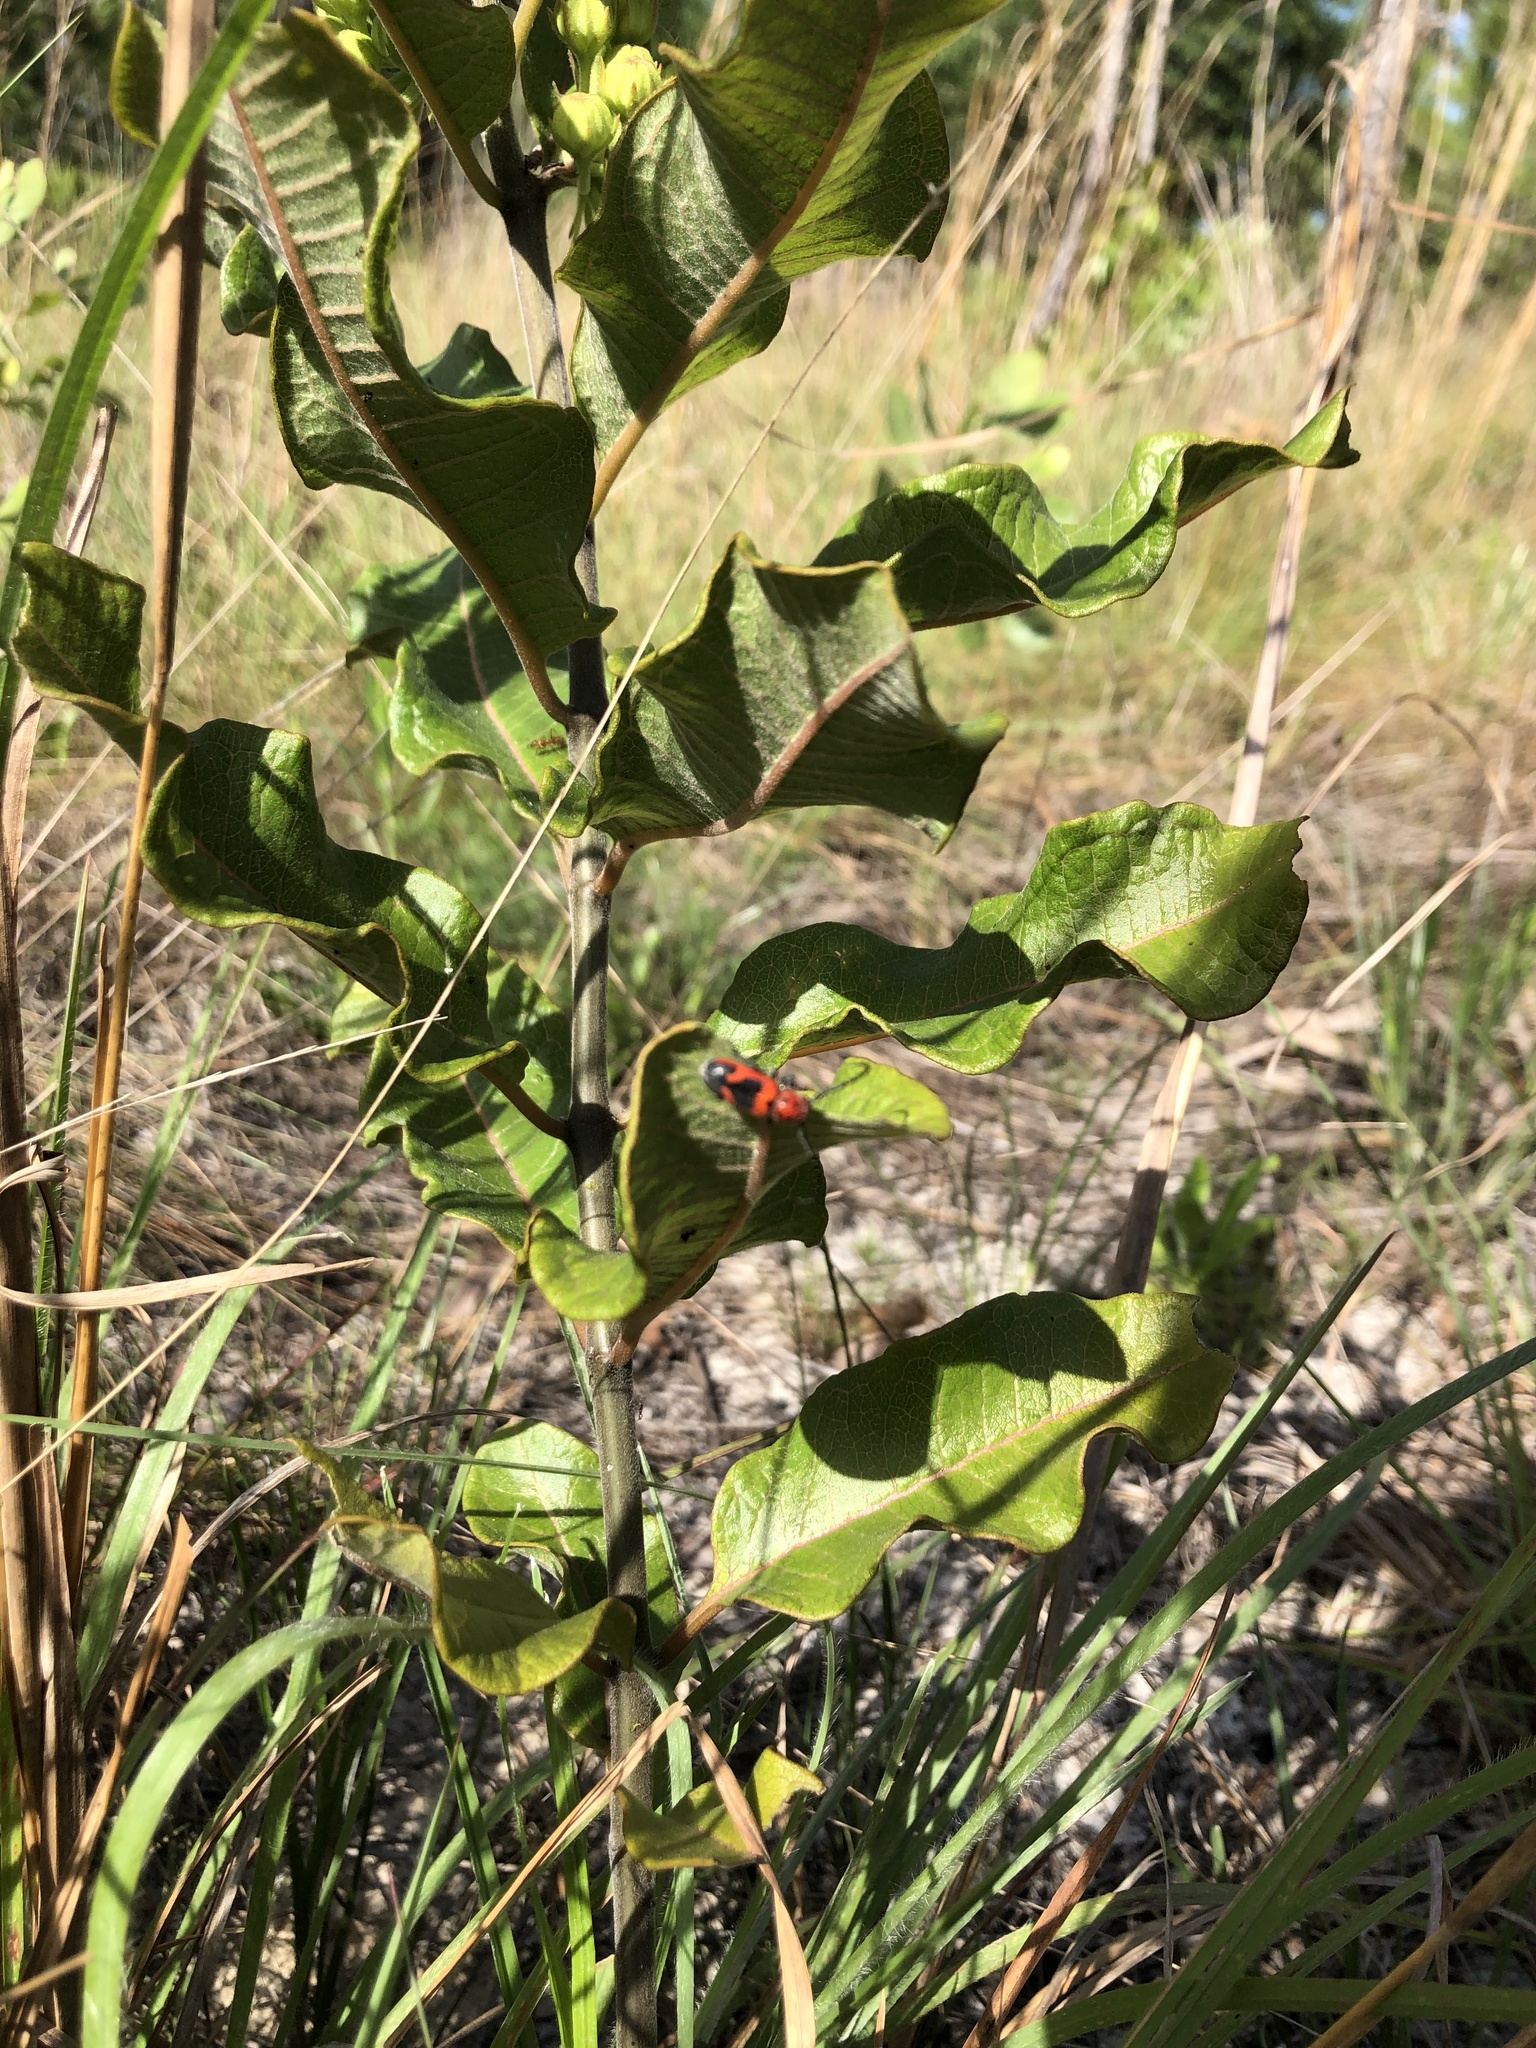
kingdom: Animalia
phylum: Arthropoda
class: Insecta
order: Coleoptera
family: Cerambycidae
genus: Tetraopes
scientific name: Tetraopes melanurus
